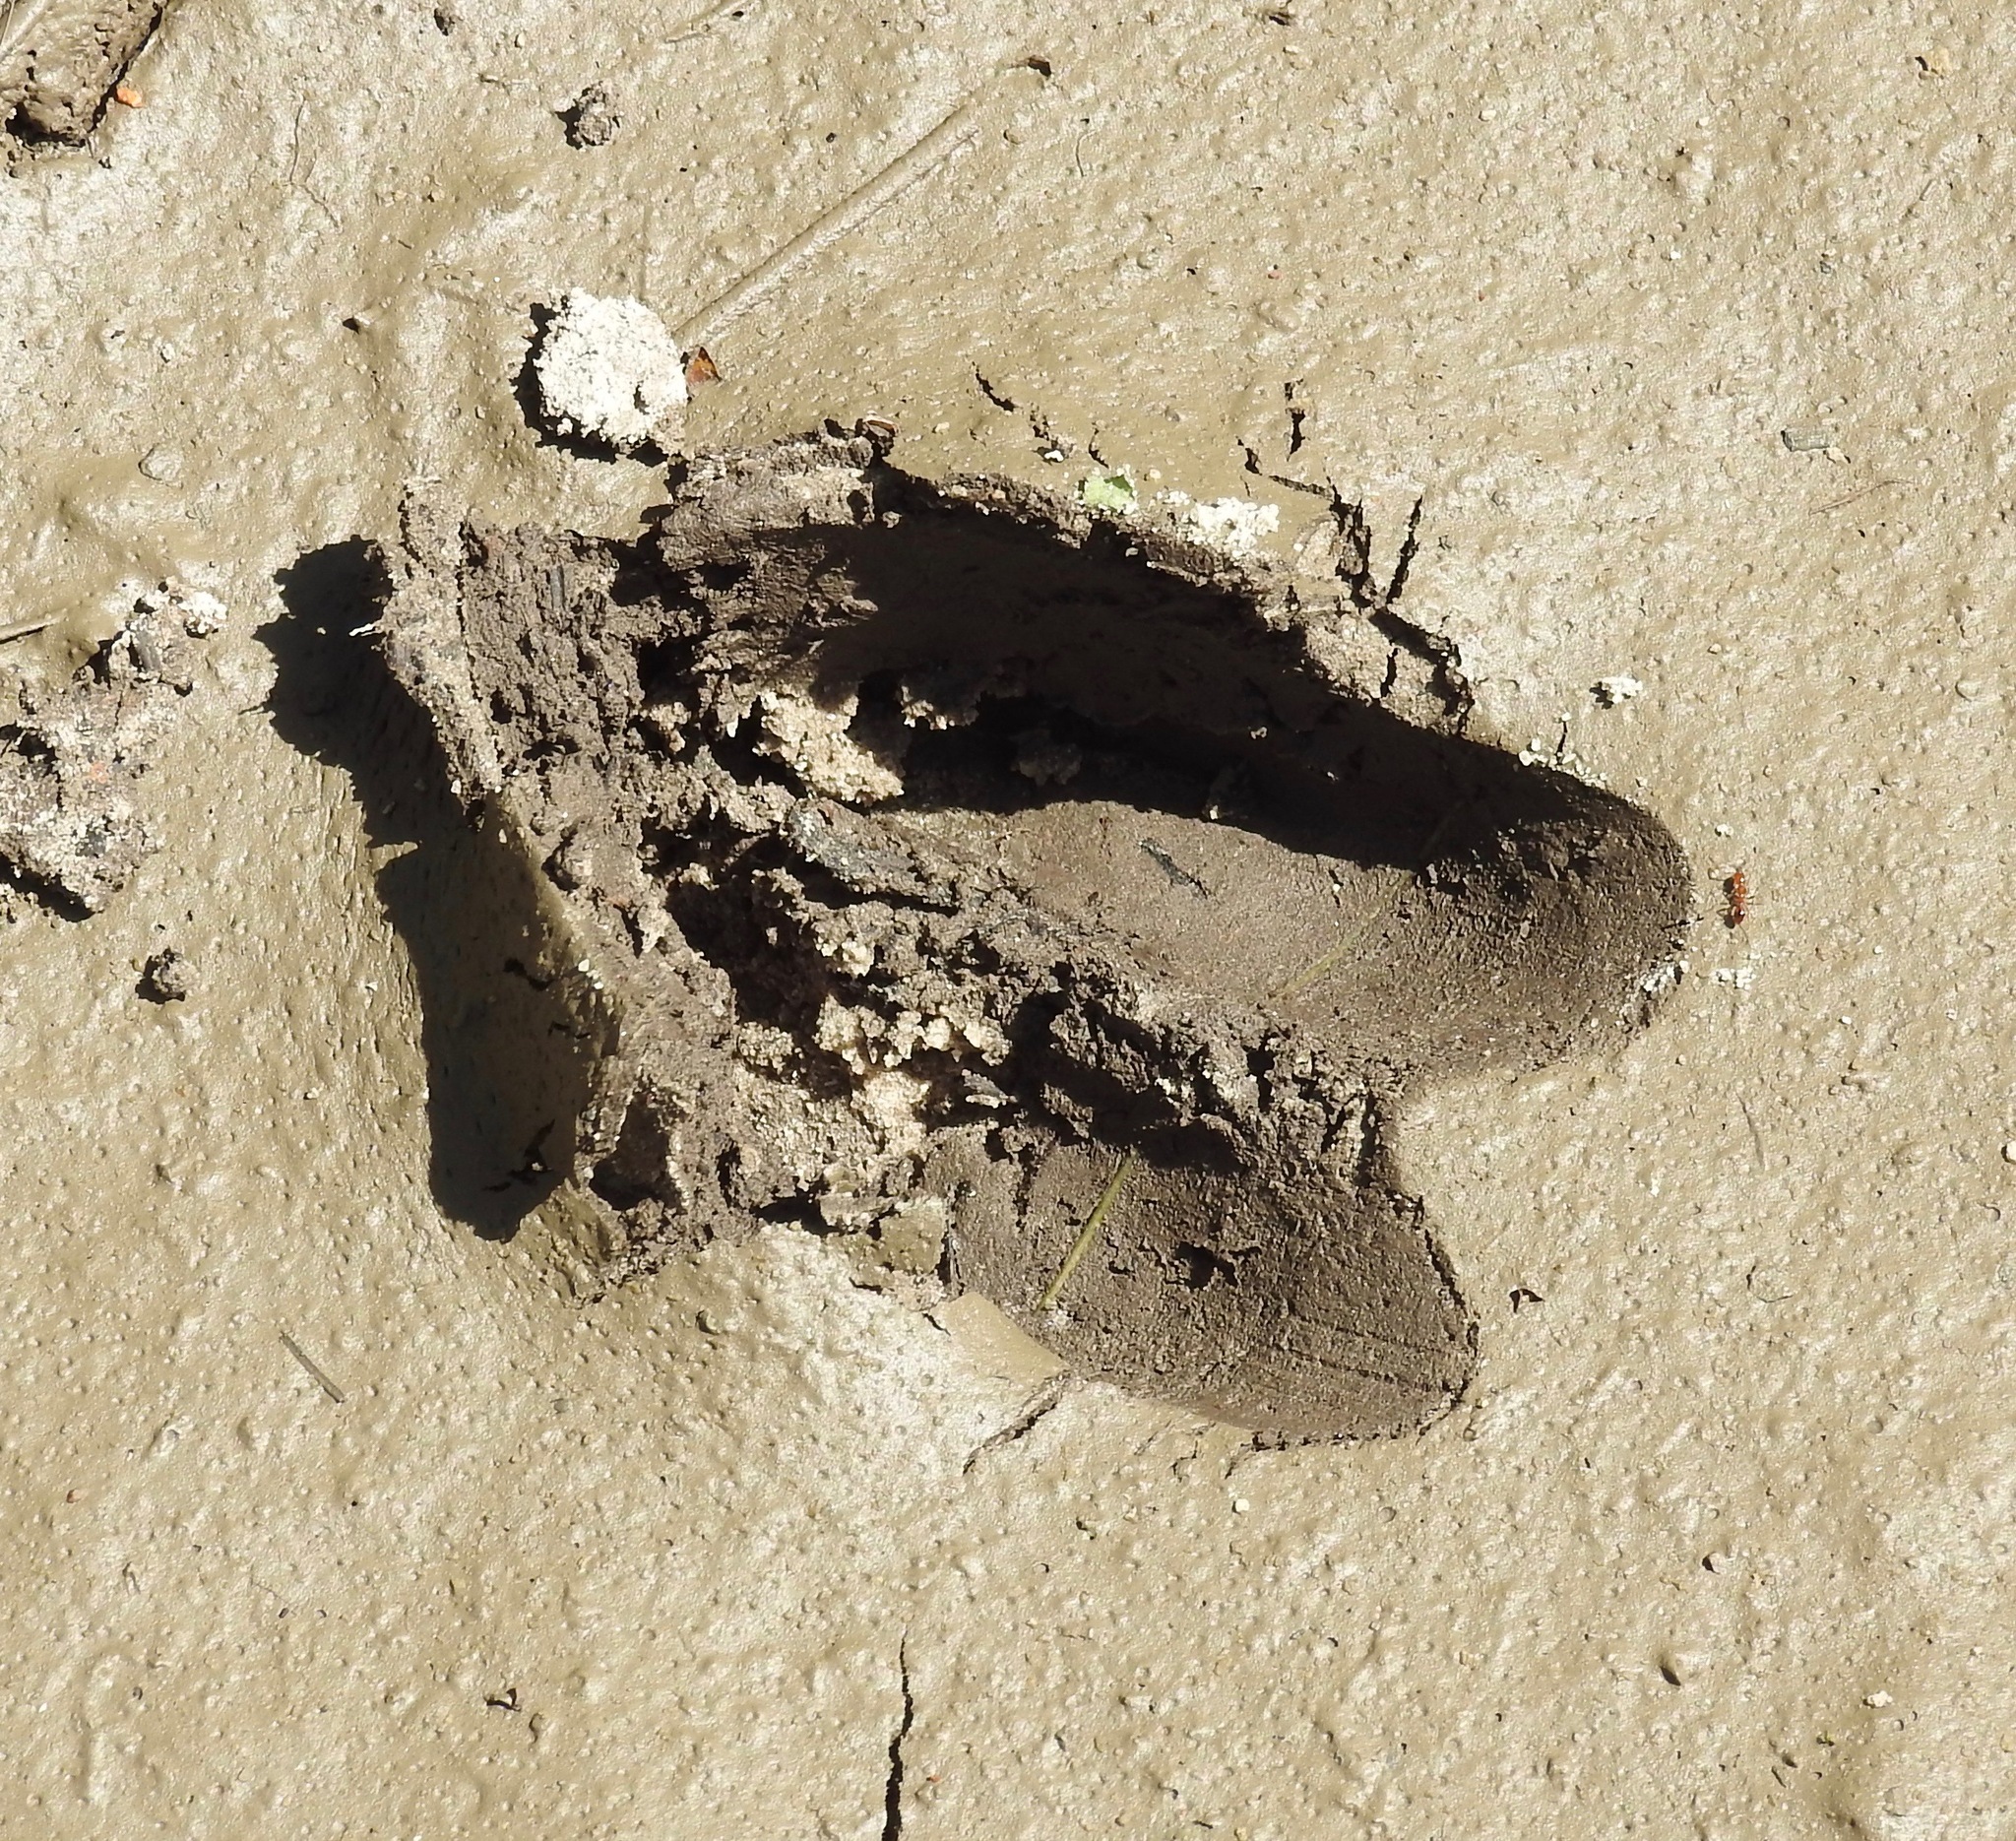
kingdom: Animalia
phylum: Chordata
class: Mammalia
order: Artiodactyla
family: Cervidae
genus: Odocoileus
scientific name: Odocoileus virginianus
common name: White-tailed deer
